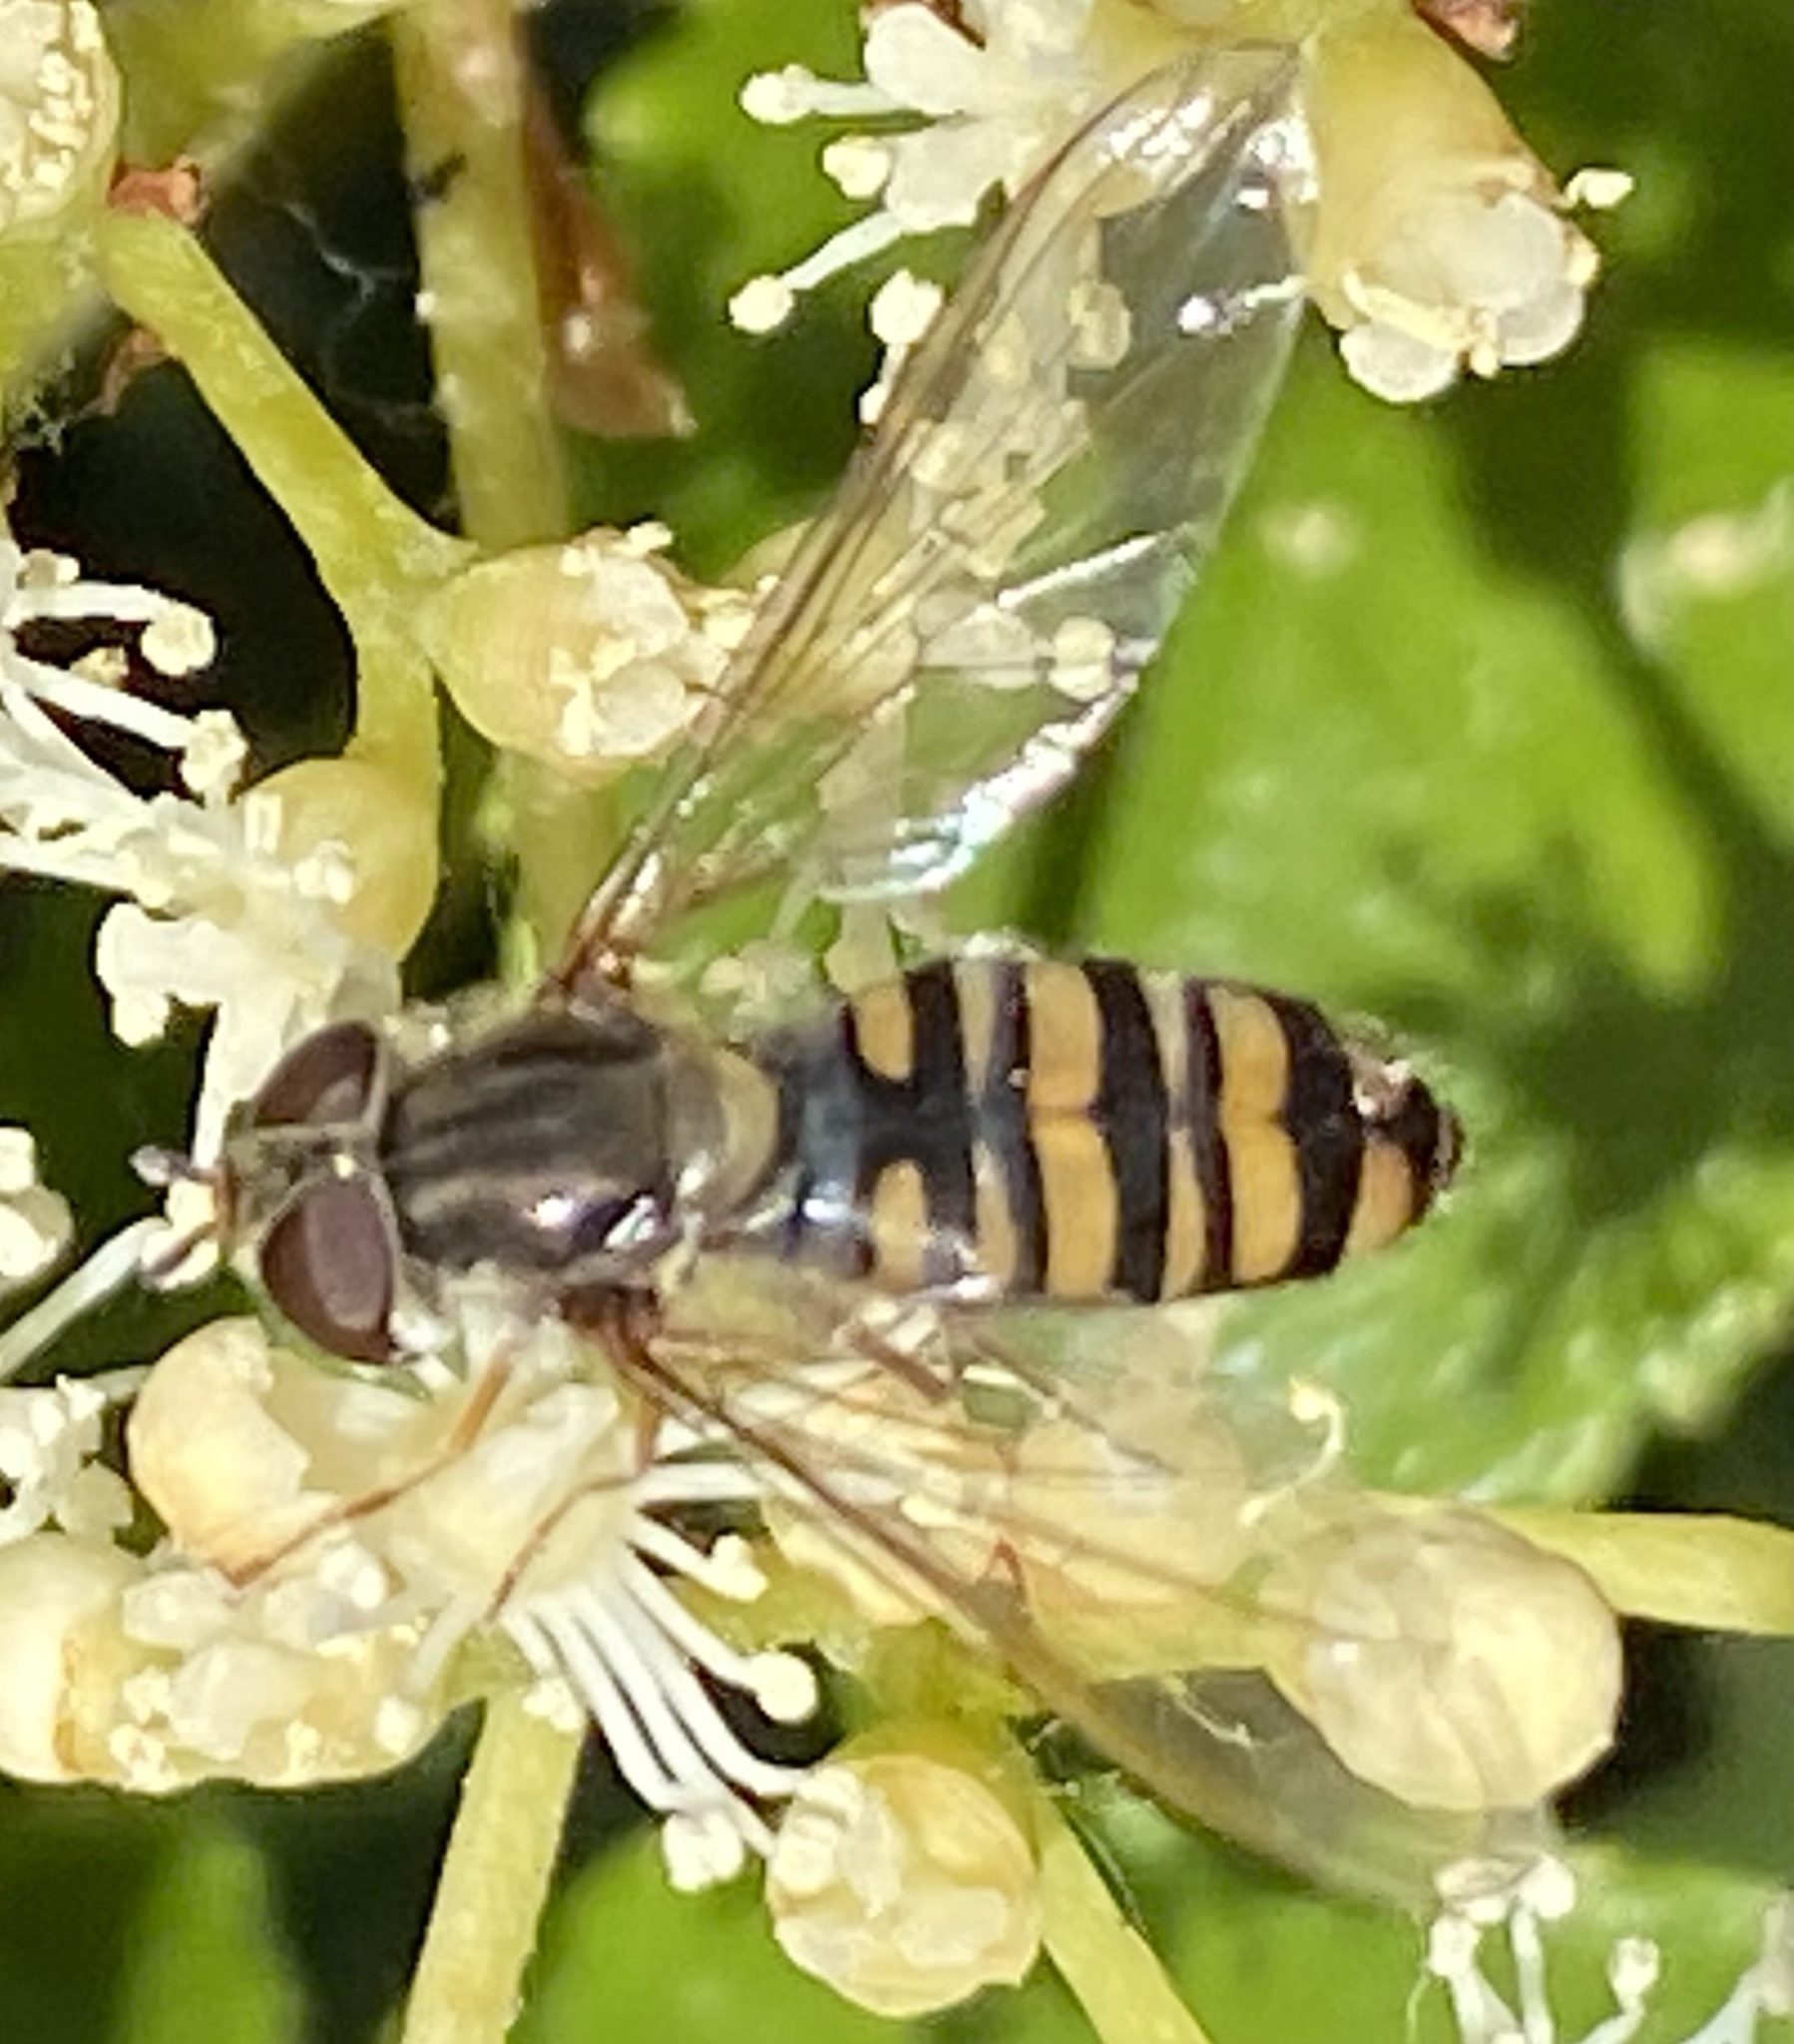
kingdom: Animalia
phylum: Arthropoda
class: Insecta
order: Diptera
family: Syrphidae
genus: Episyrphus
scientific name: Episyrphus balteatus
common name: Marmalade hoverfly
